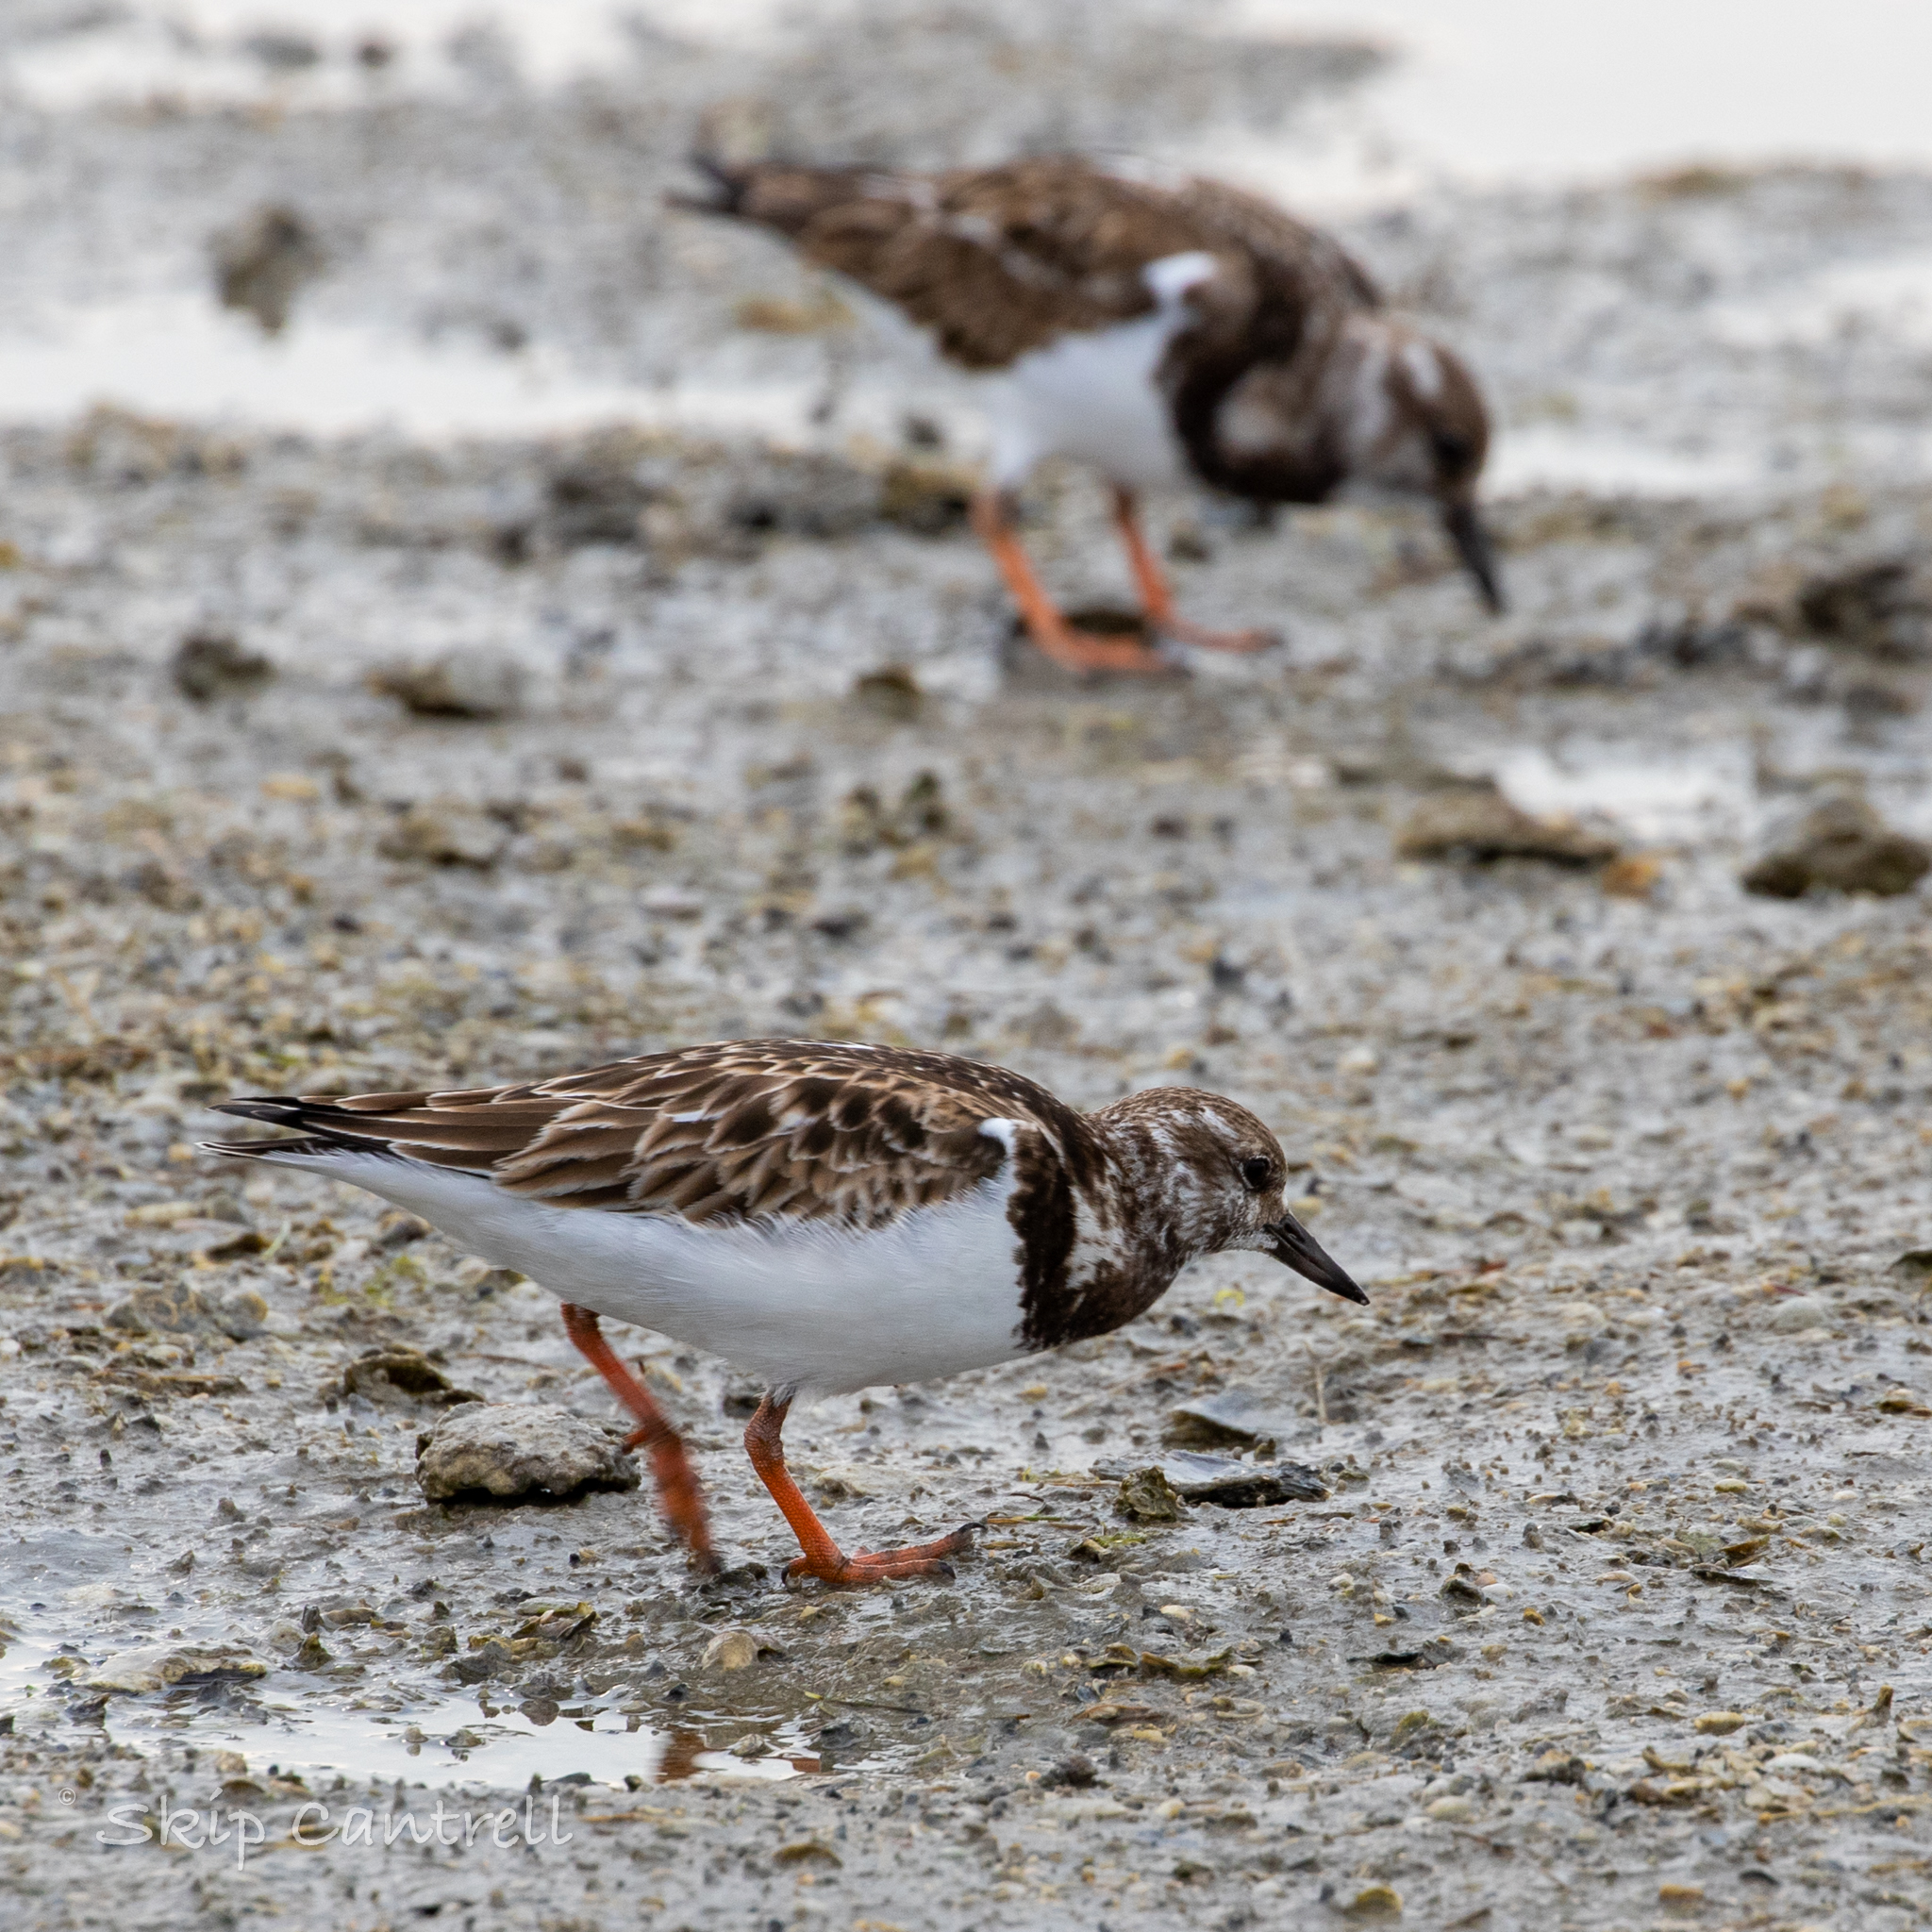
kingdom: Animalia
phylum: Chordata
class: Aves
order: Charadriiformes
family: Scolopacidae
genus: Arenaria
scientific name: Arenaria interpres
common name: Ruddy turnstone
